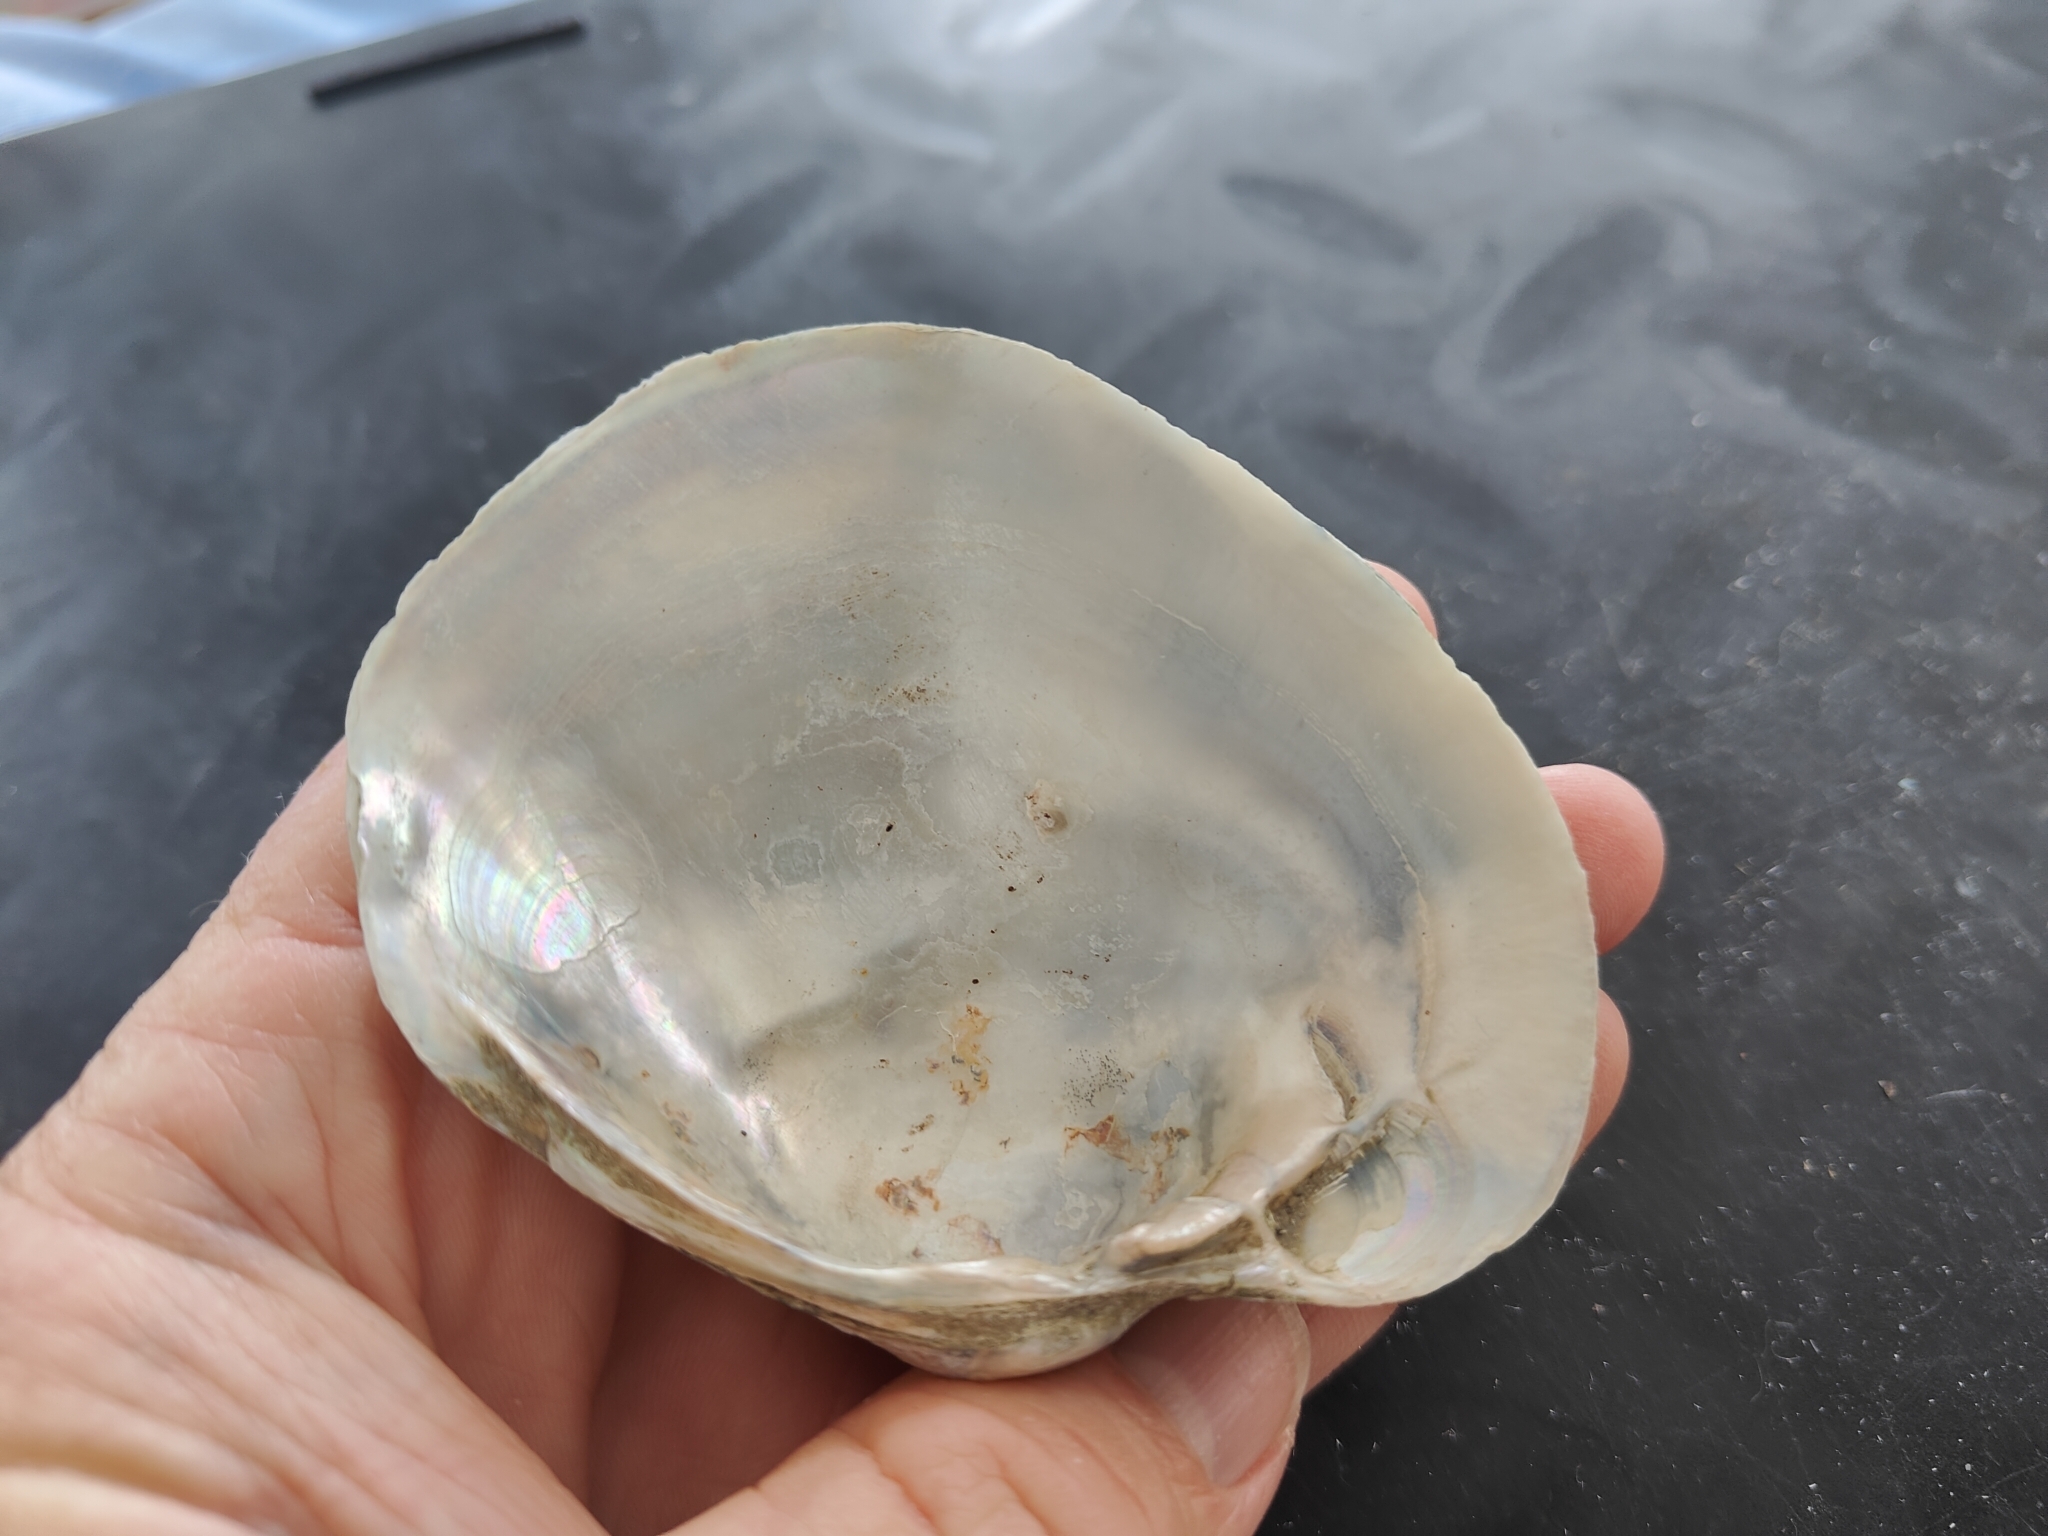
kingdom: Animalia
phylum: Mollusca
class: Bivalvia
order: Unionida
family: Unionidae
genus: Lampsilis
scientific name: Lampsilis cardium
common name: Plain pocketbook
